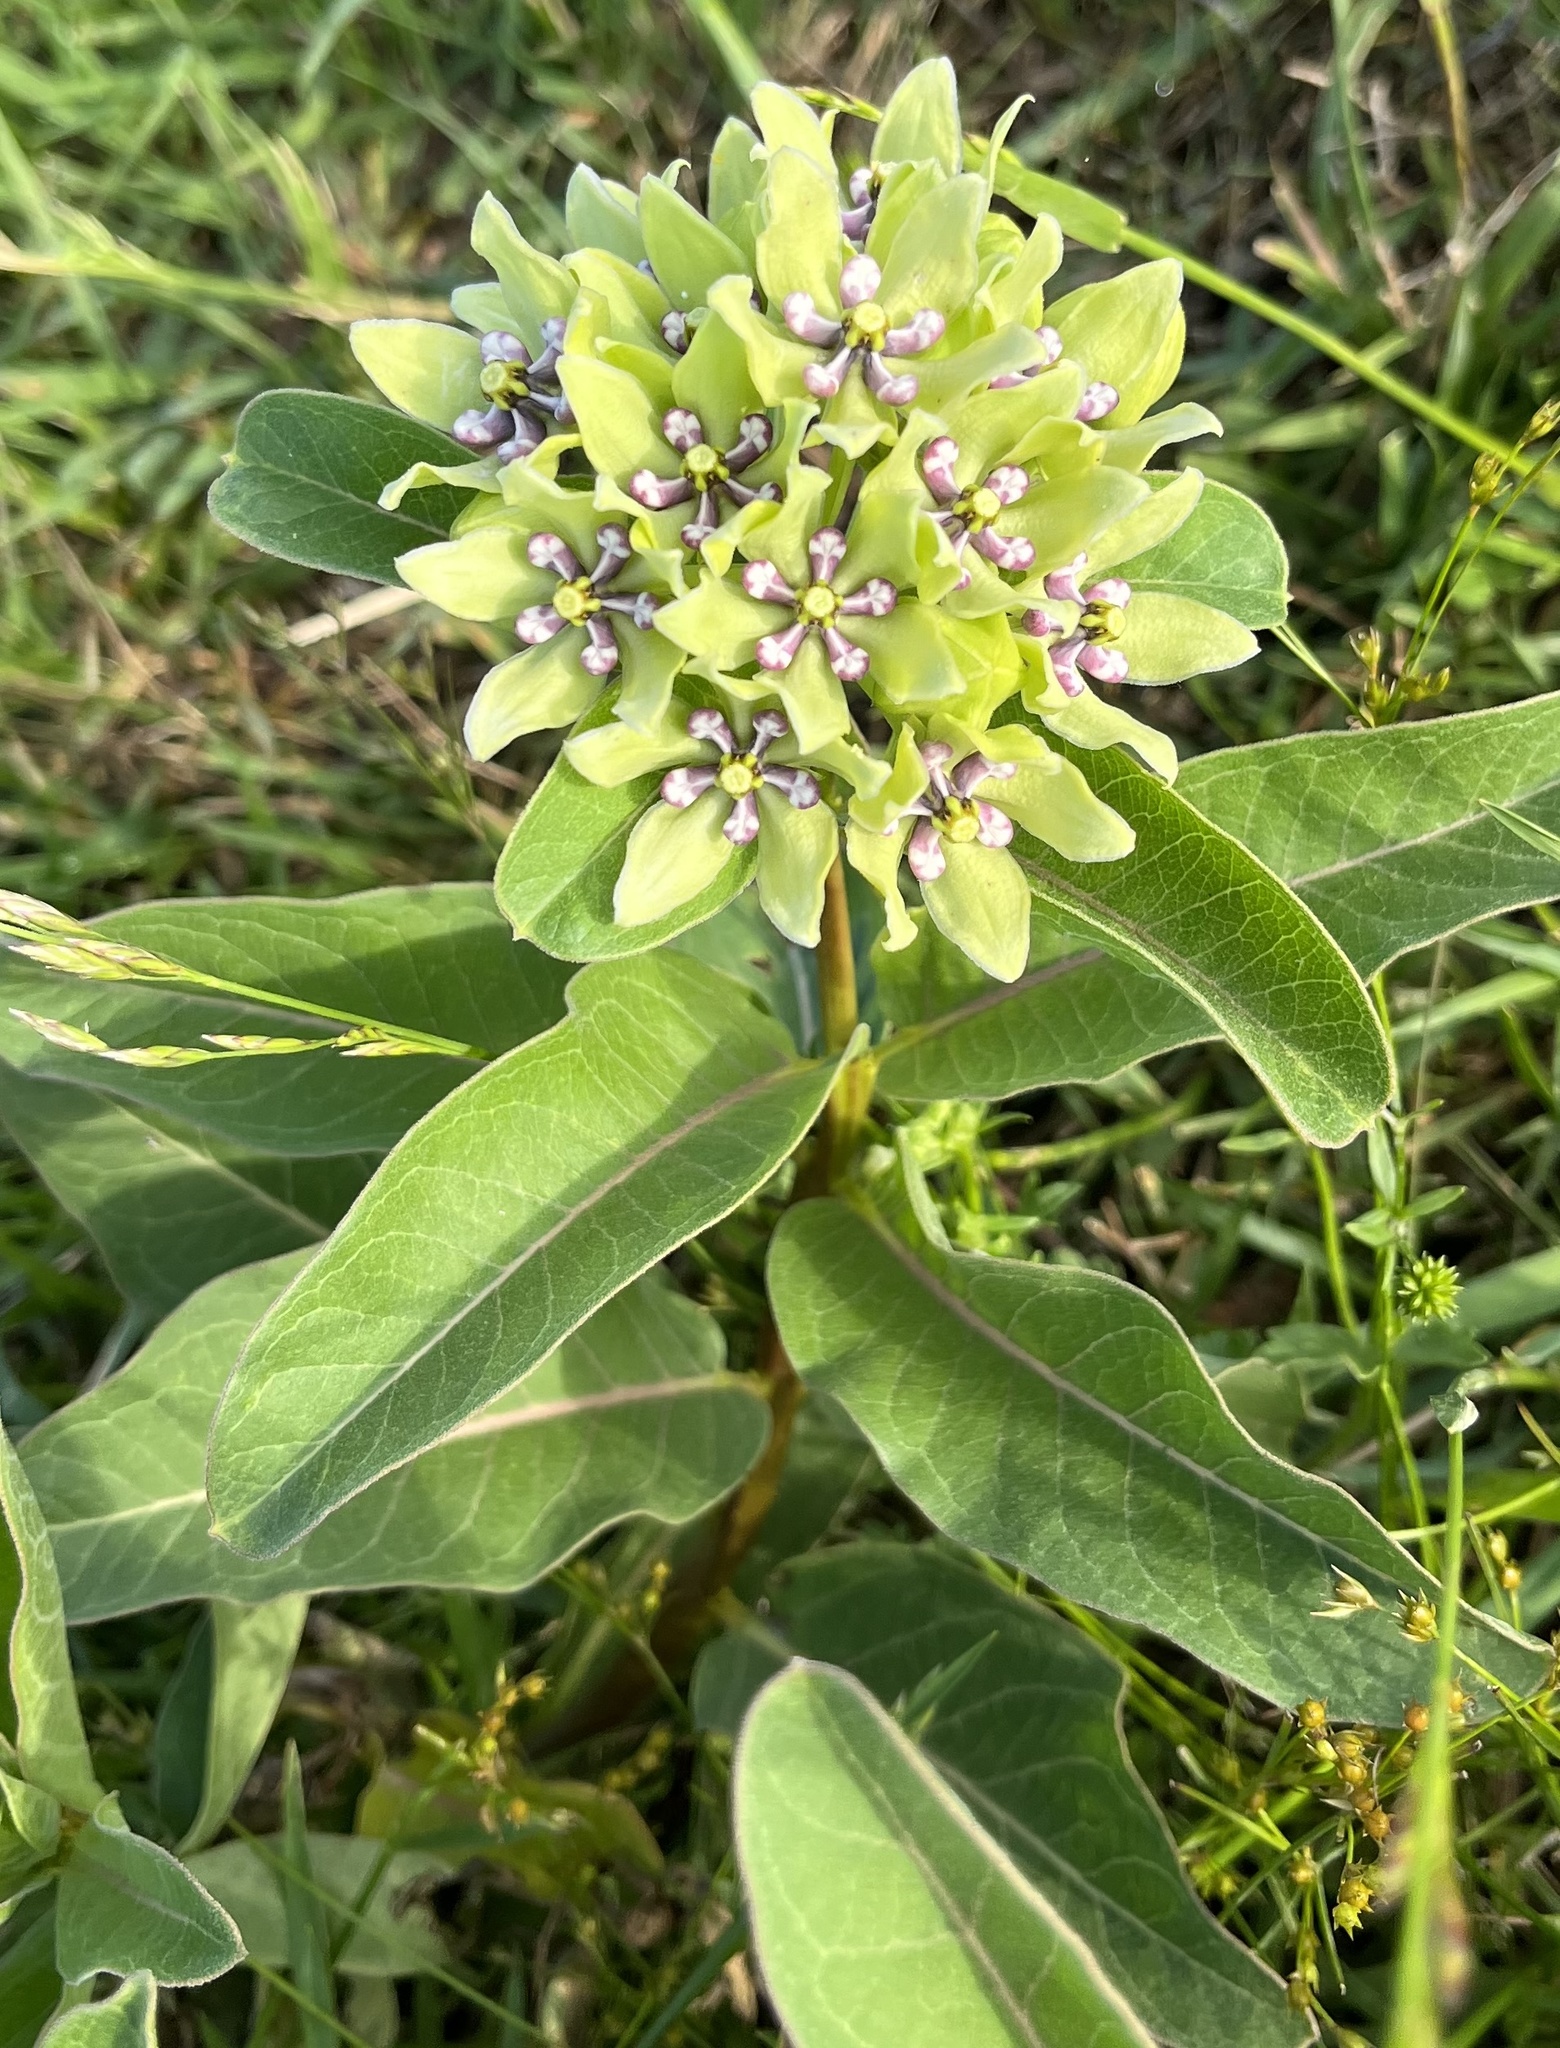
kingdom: Plantae
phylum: Tracheophyta
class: Magnoliopsida
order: Gentianales
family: Apocynaceae
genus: Asclepias
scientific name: Asclepias viridis
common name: Antelope-horns
